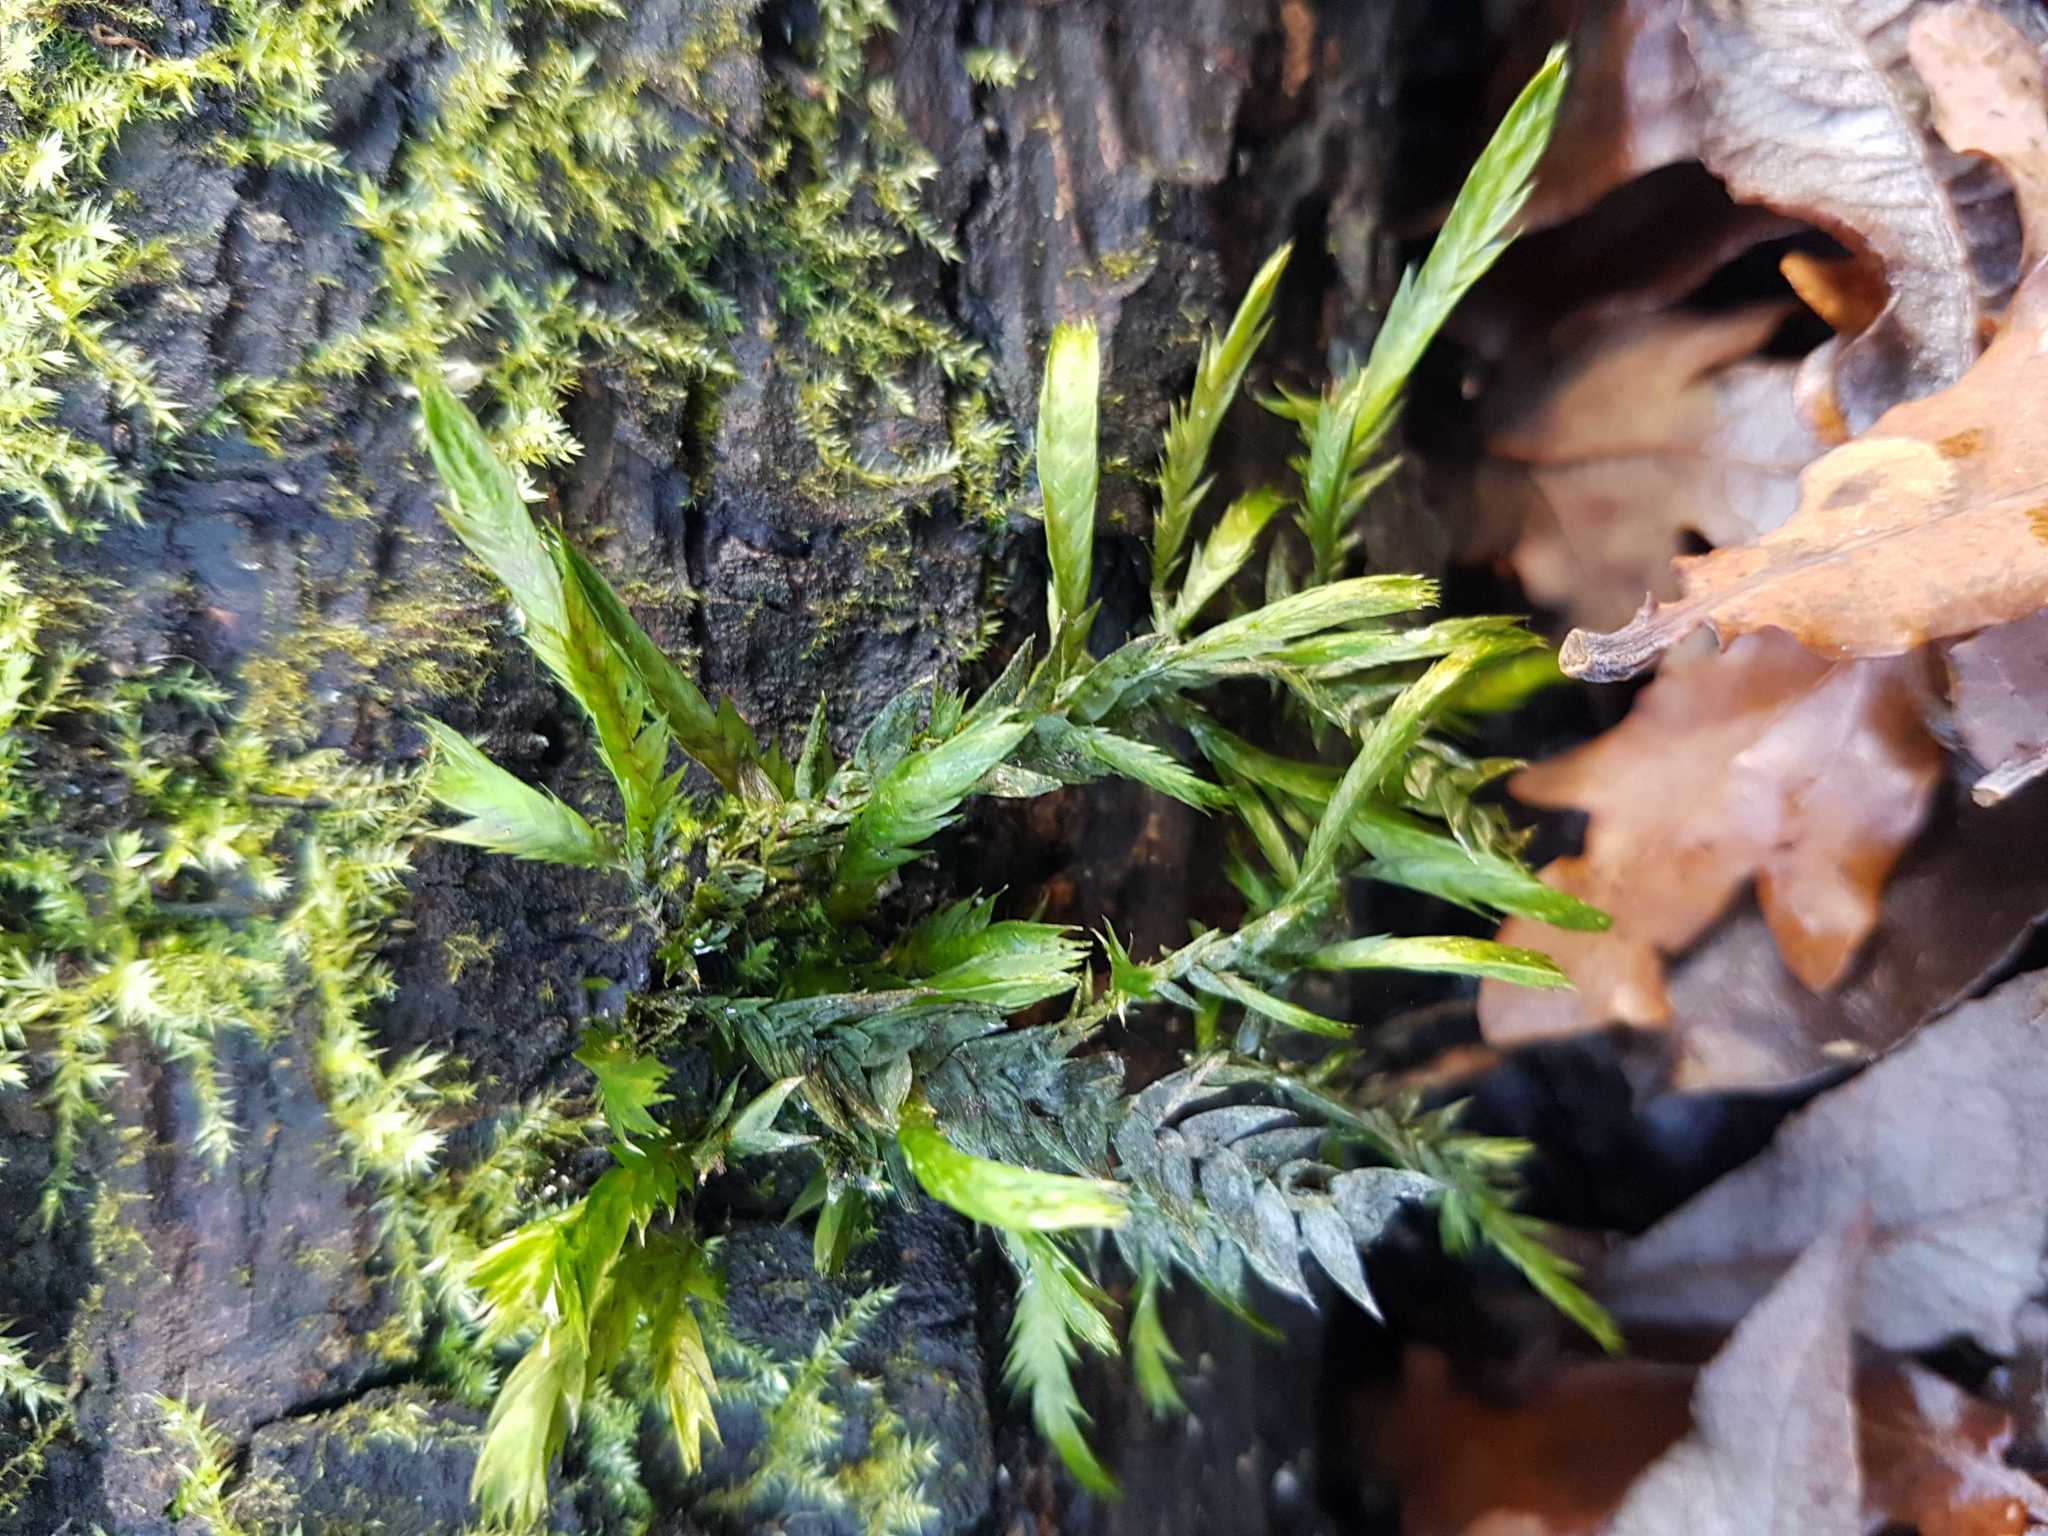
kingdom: Plantae
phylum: Bryophyta
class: Bryopsida
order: Hypnales
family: Fontinalaceae
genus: Fontinalis
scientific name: Fontinalis antipyretica
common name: Greater water-moss
